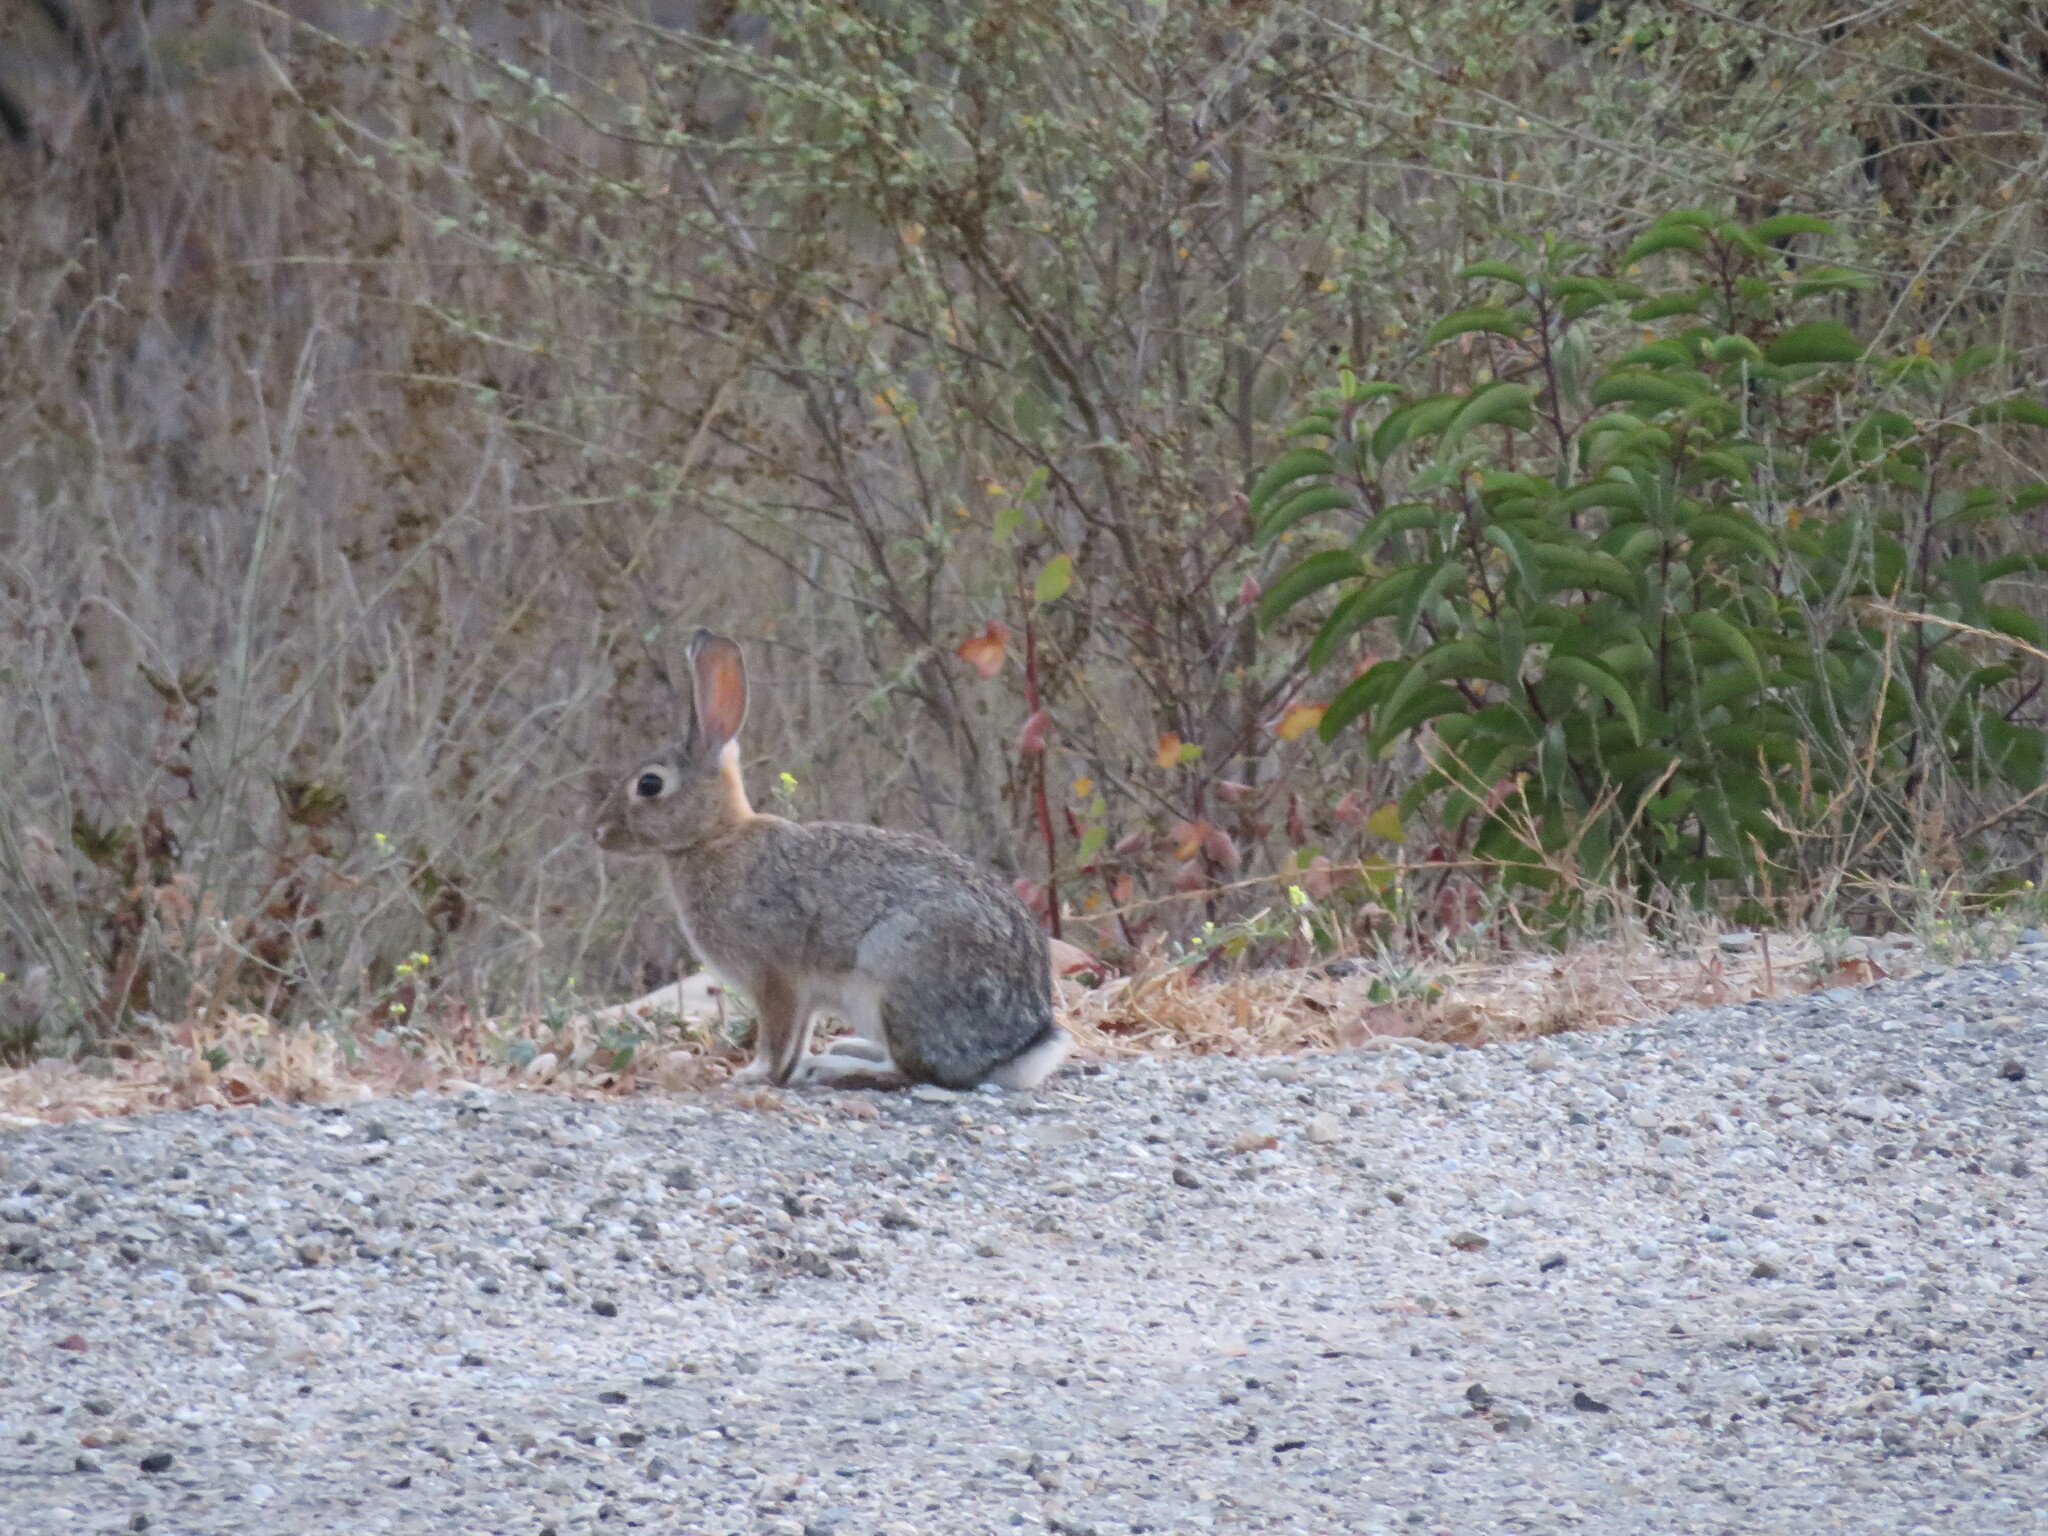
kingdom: Animalia
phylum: Chordata
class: Mammalia
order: Lagomorpha
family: Leporidae
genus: Sylvilagus
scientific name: Sylvilagus audubonii
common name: Desert cottontail
